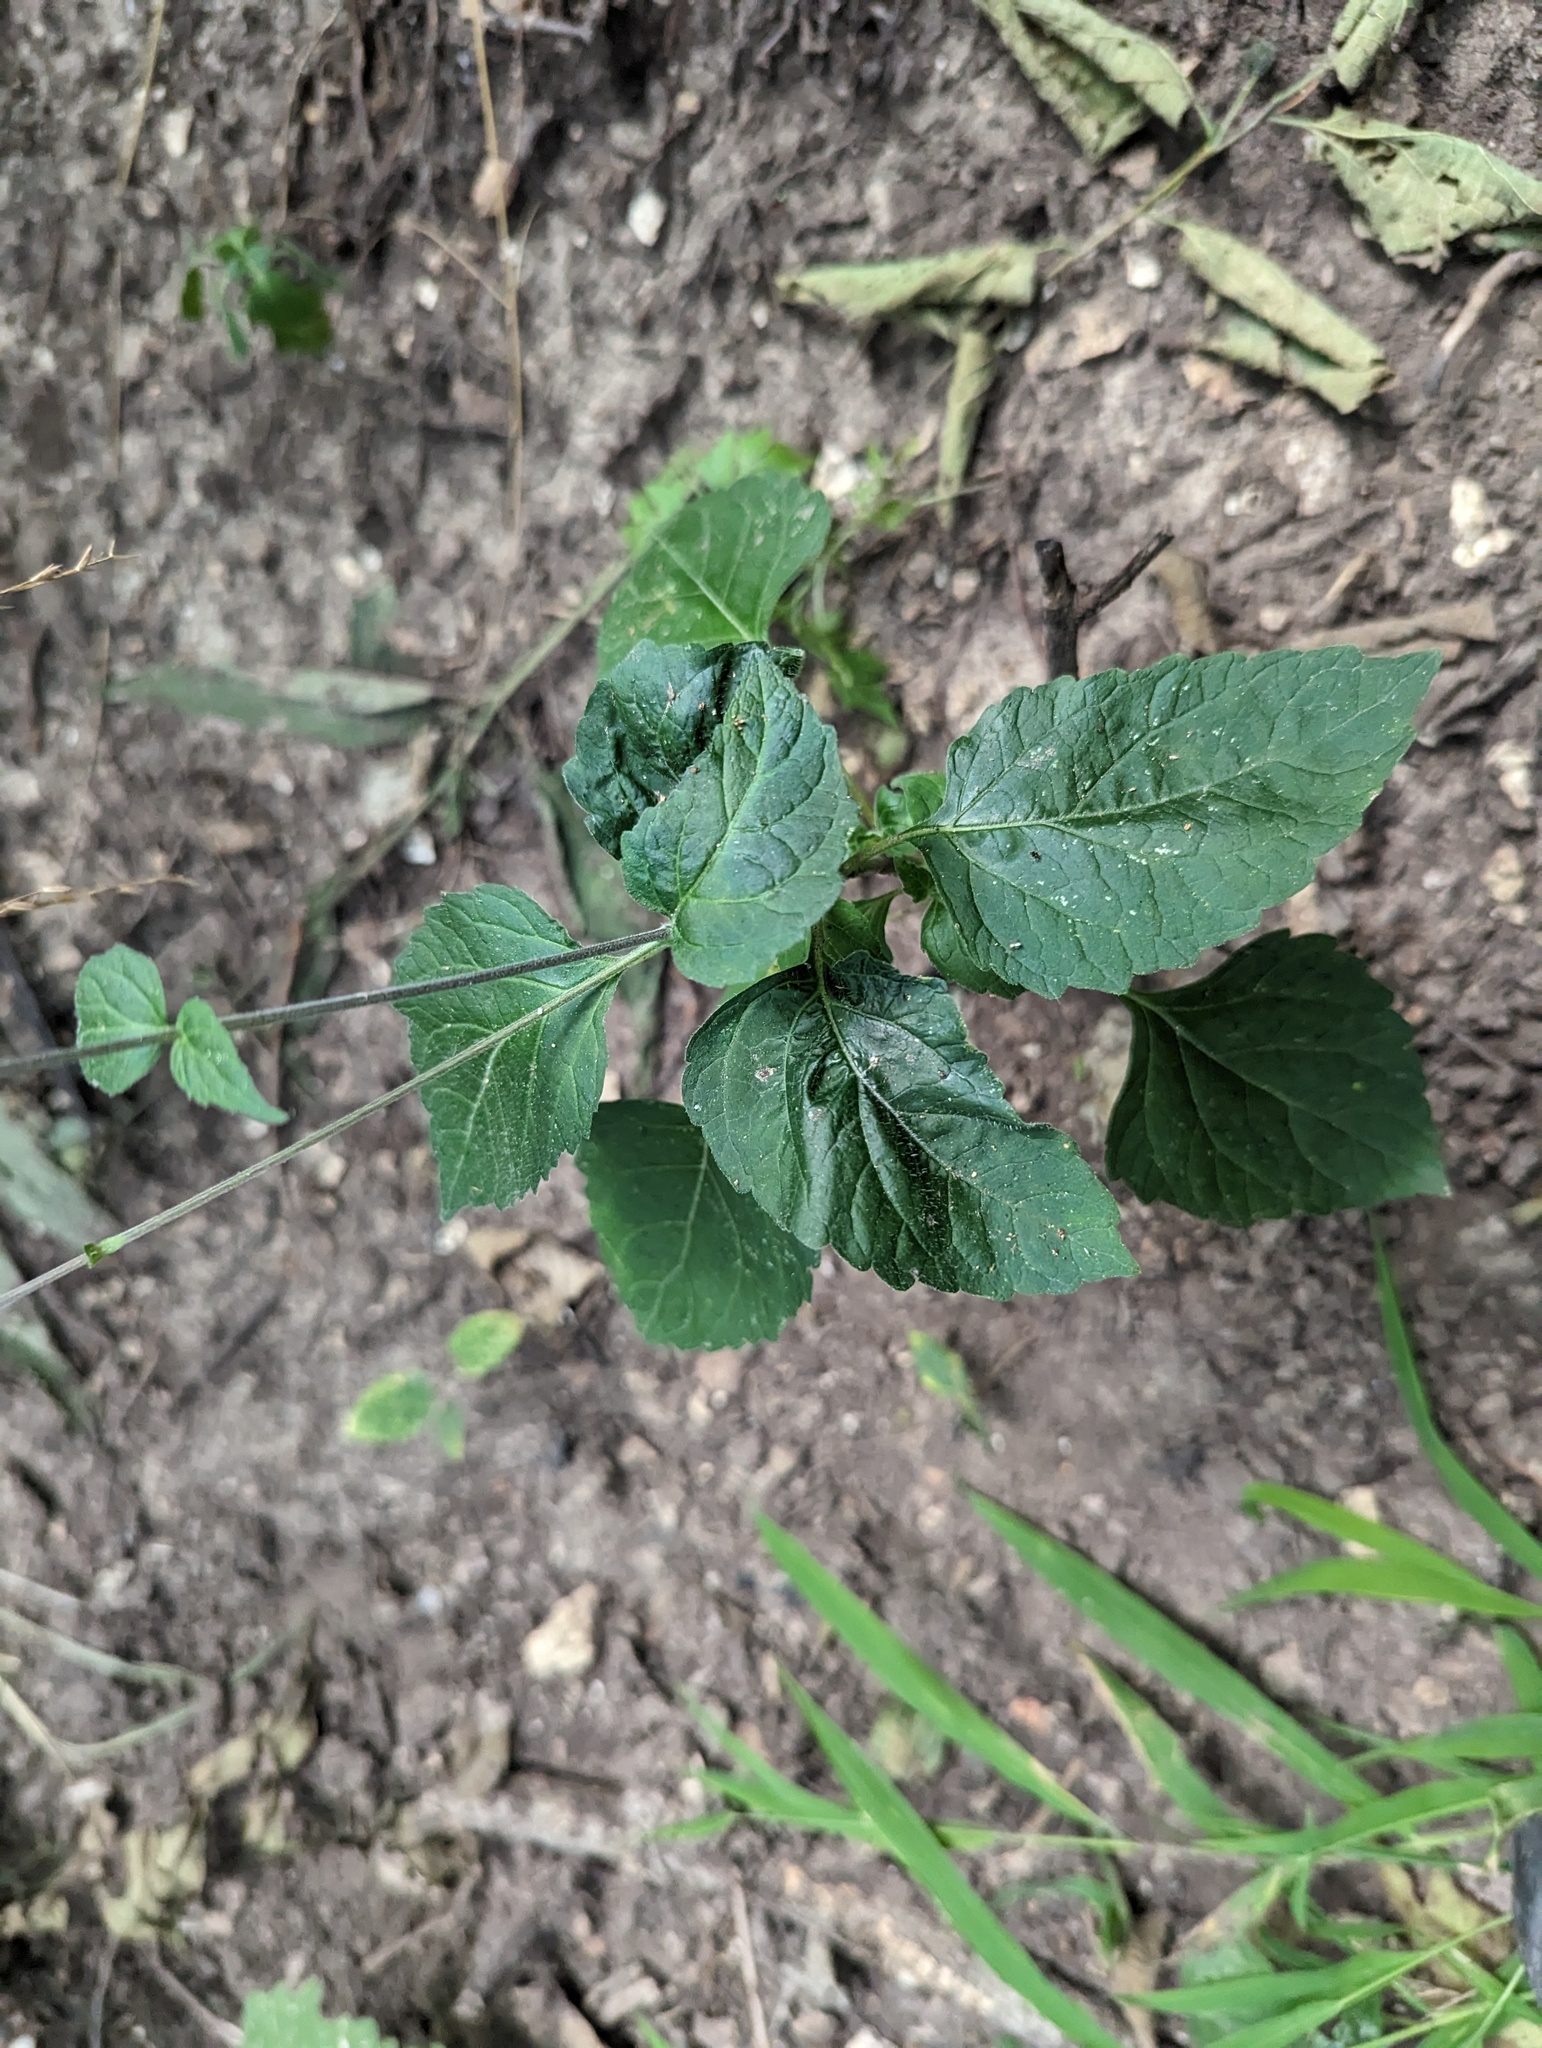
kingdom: Plantae
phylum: Tracheophyta
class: Magnoliopsida
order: Lamiales
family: Phrymaceae
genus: Phryma
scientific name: Phryma leptostachya
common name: American lopseed
